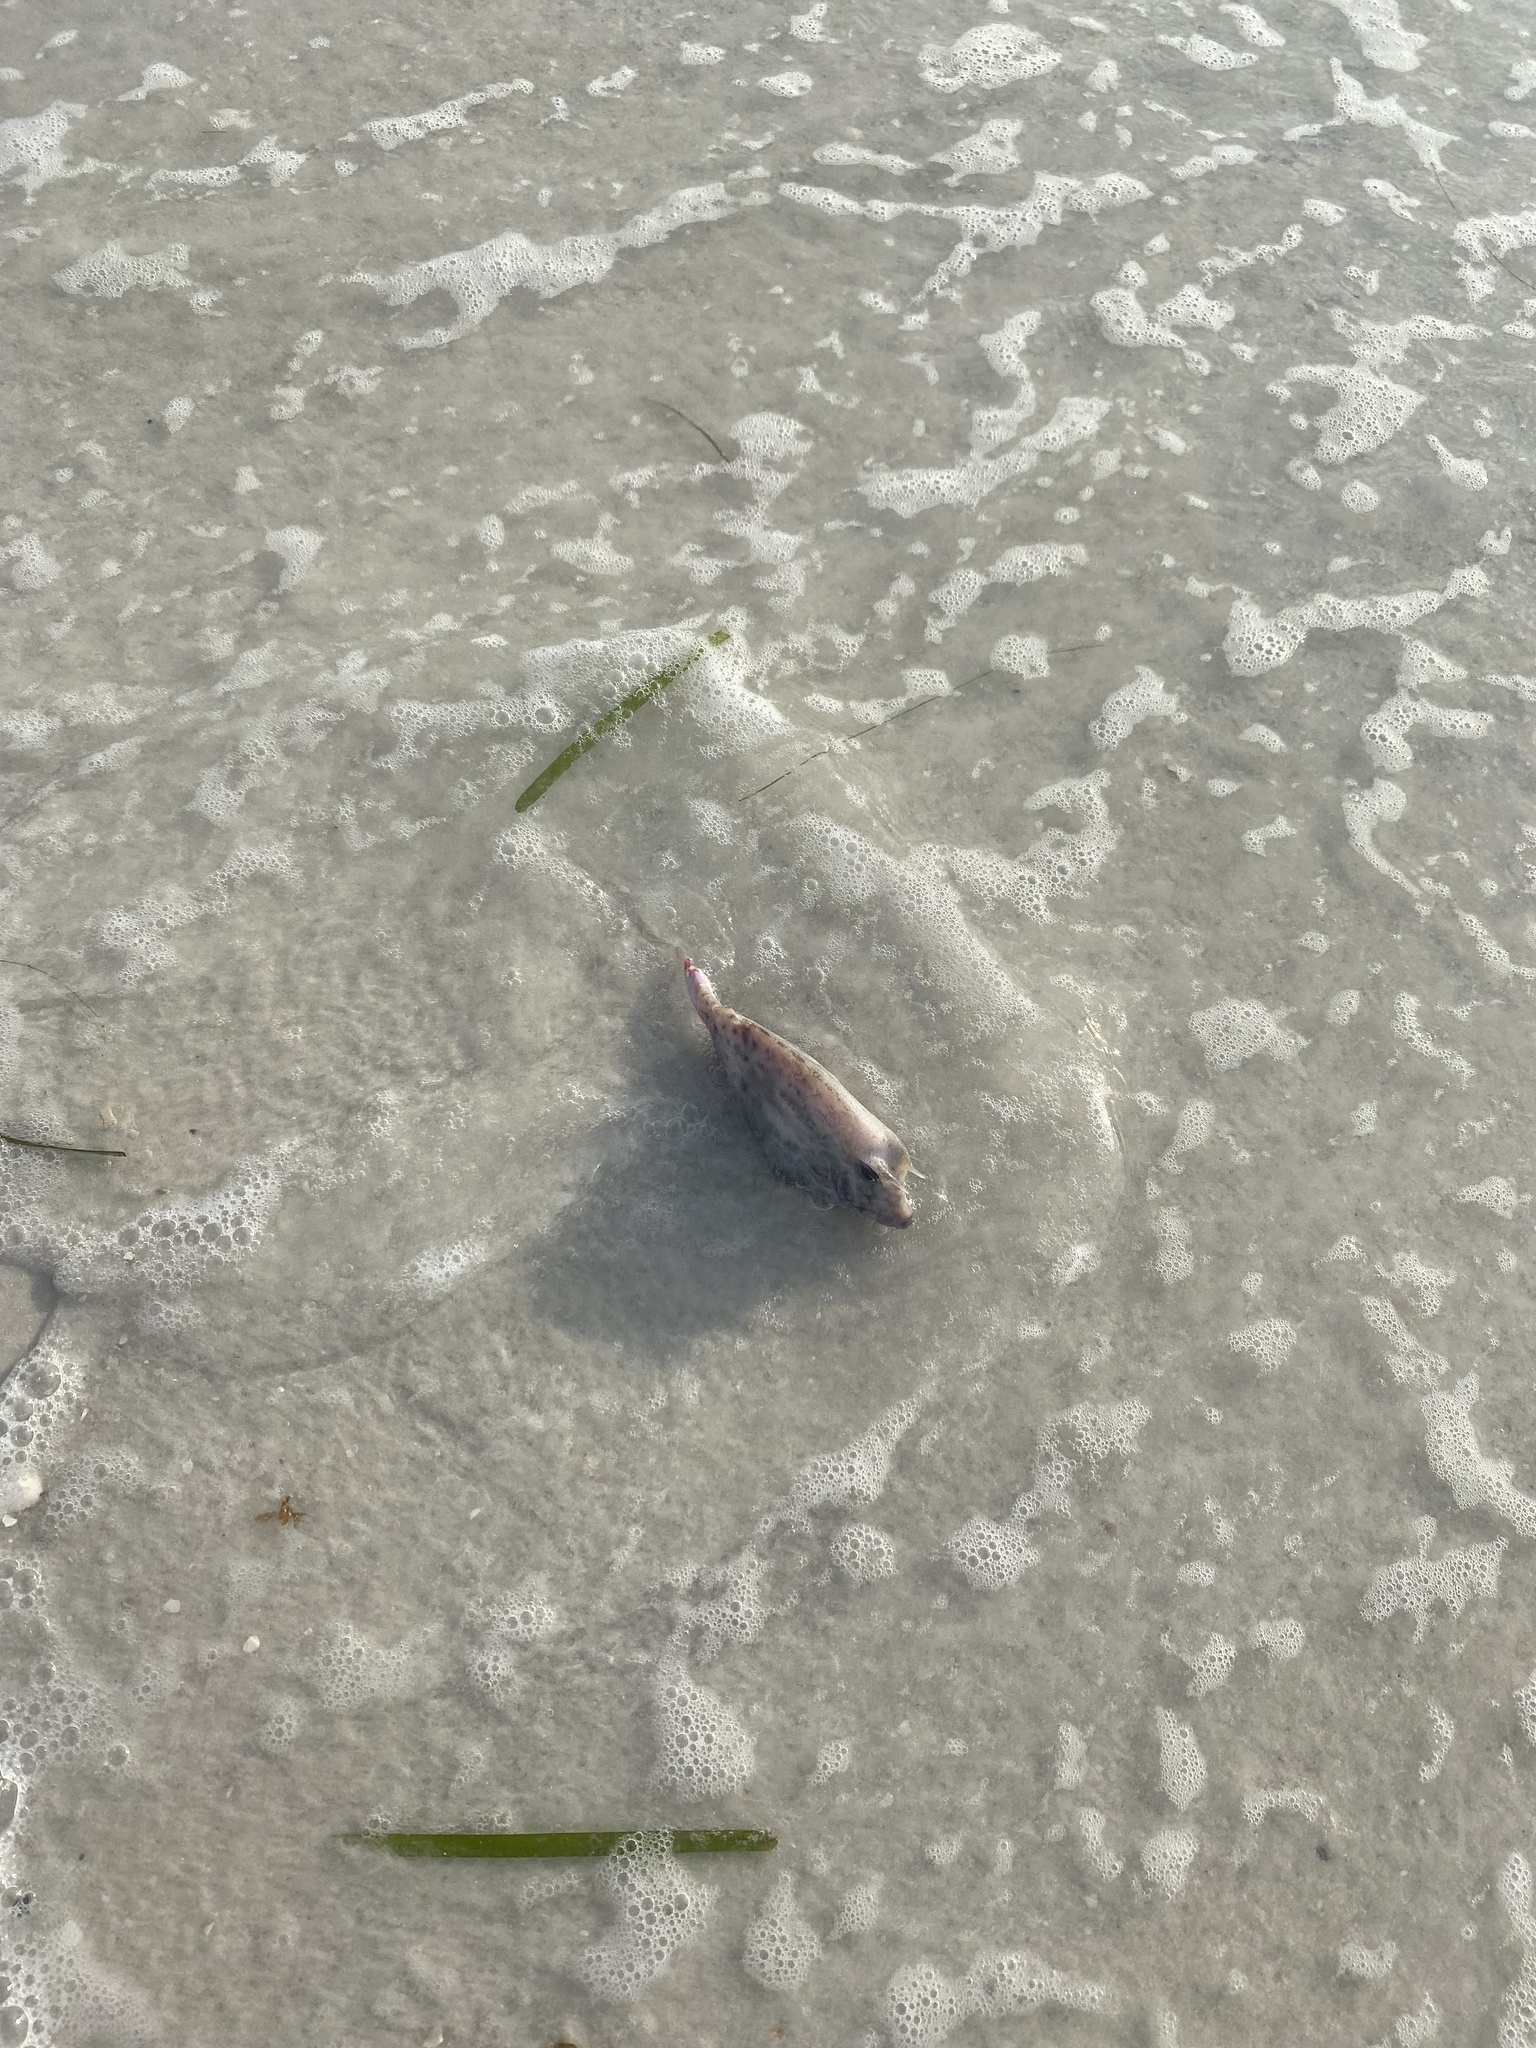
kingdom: Animalia
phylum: Chordata
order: Tetraodontiformes
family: Ostraciidae
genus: Acanthostracion
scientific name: Acanthostracion quadricornis
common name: Scrawled cowfish
